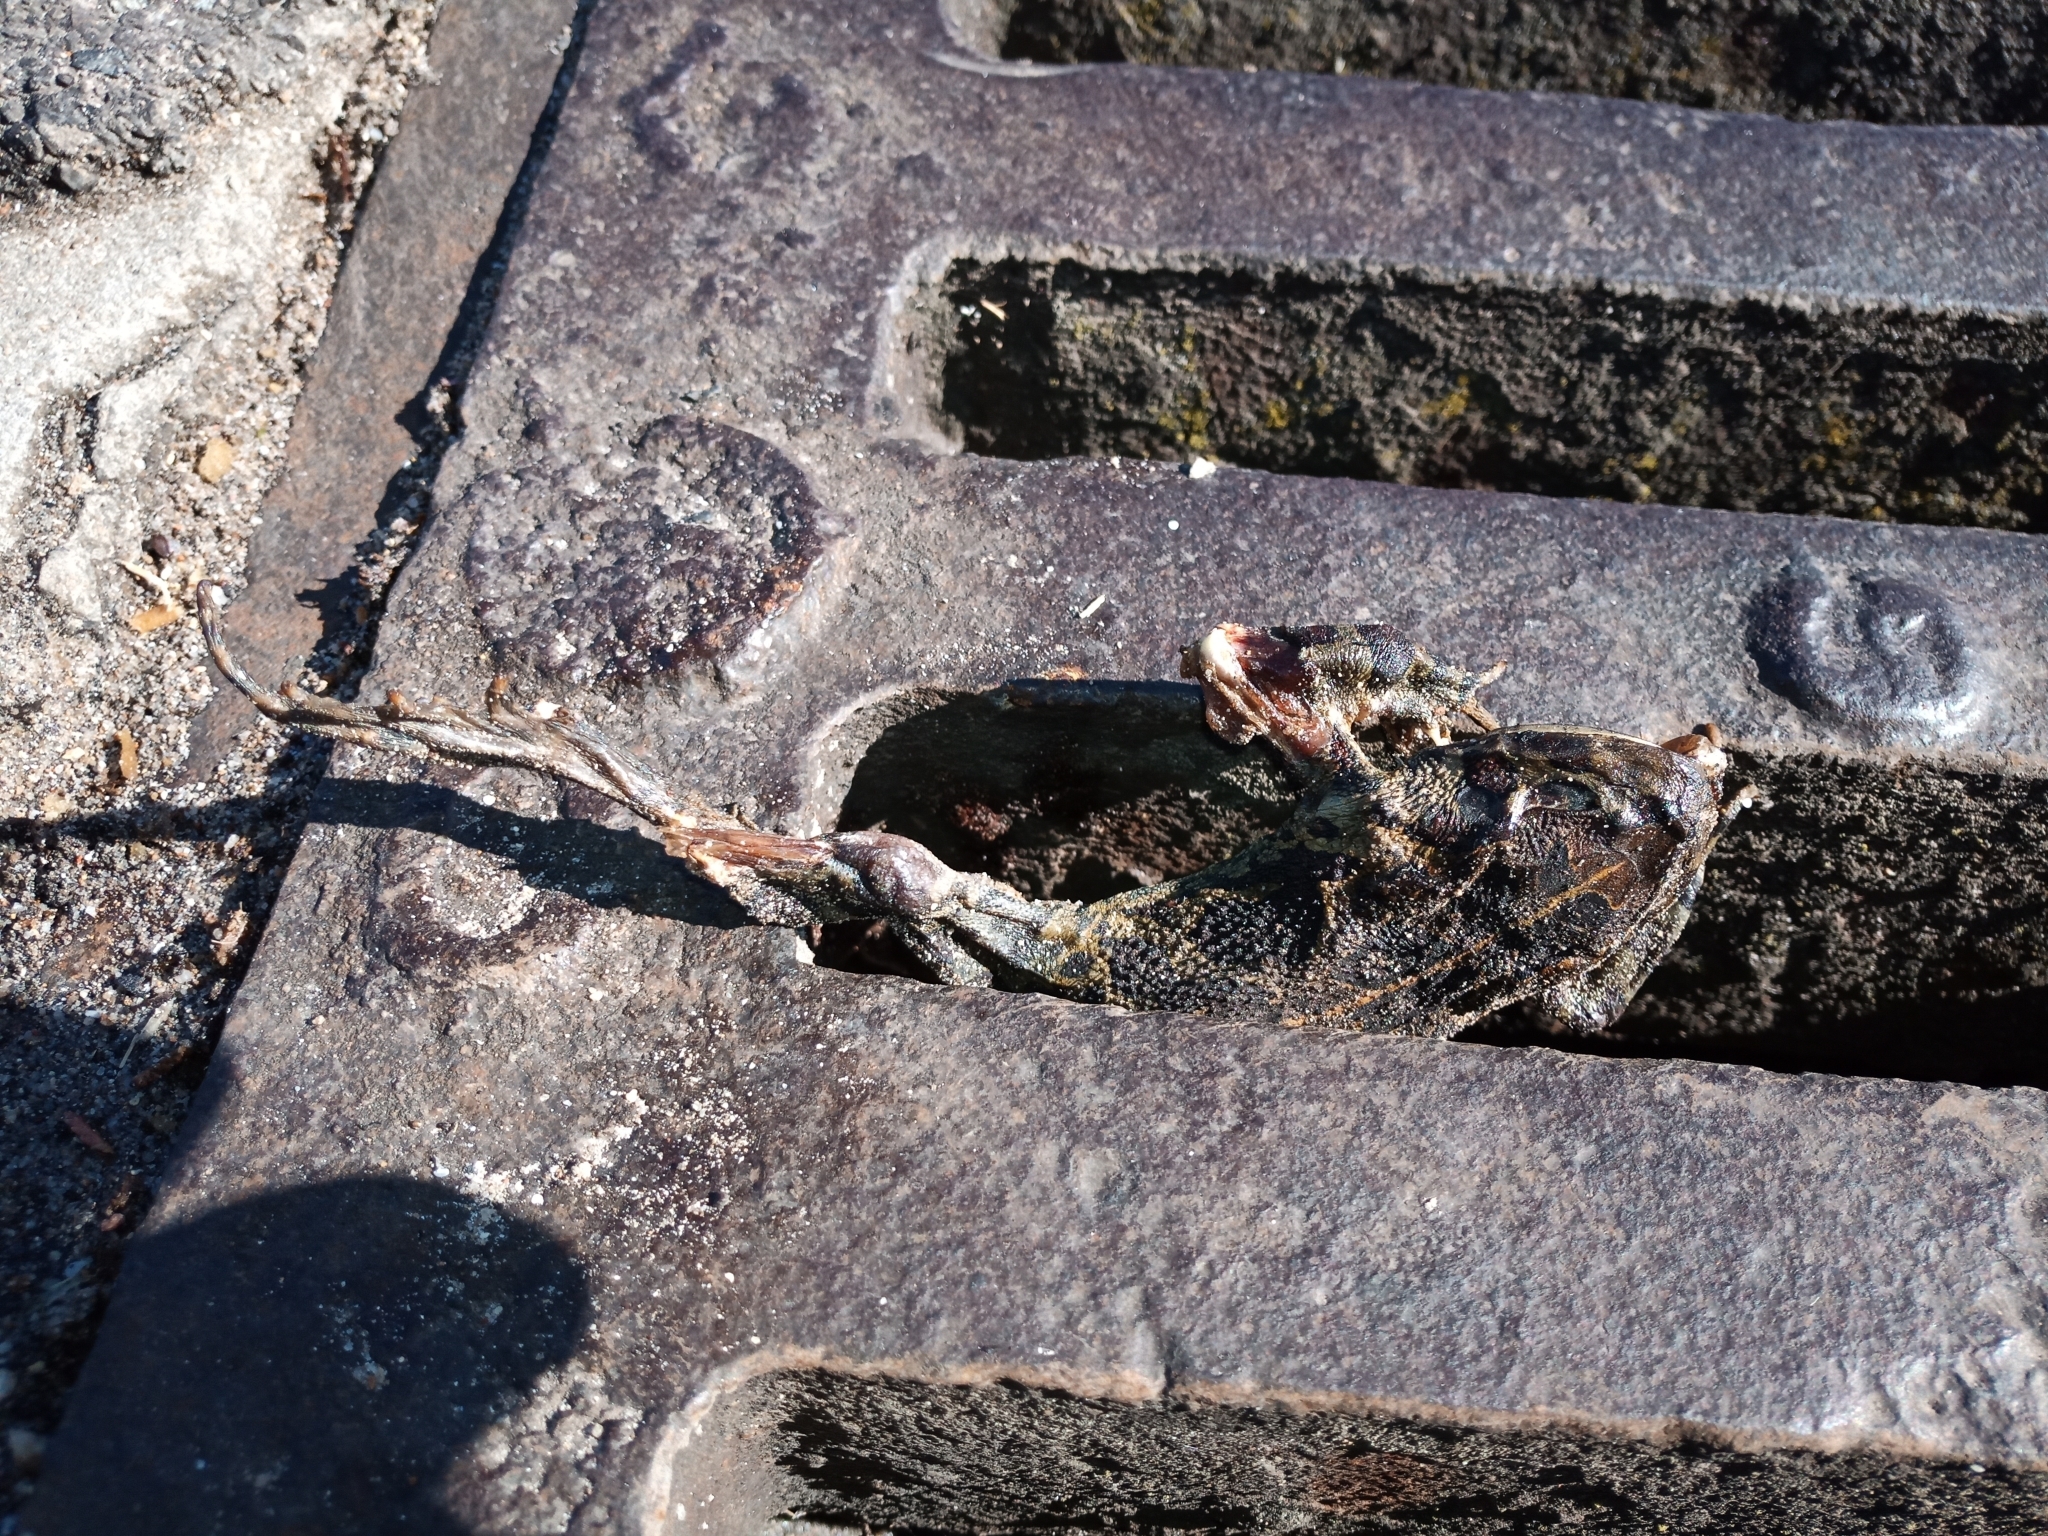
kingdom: Animalia
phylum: Chordata
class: Amphibia
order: Anura
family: Bufonidae
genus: Sclerophrys
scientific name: Sclerophrys pantherina
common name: Panther toad
